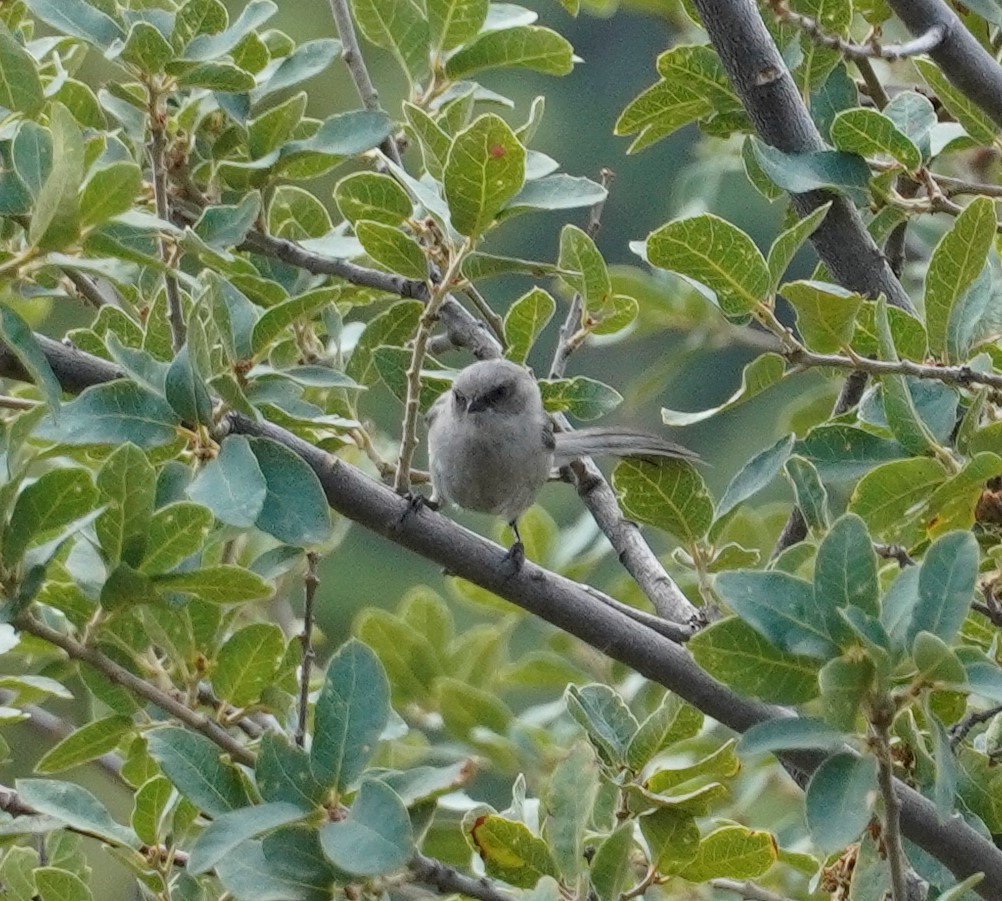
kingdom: Animalia
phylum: Chordata
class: Aves
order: Passeriformes
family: Aegithalidae
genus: Psaltriparus
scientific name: Psaltriparus minimus
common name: American bushtit
